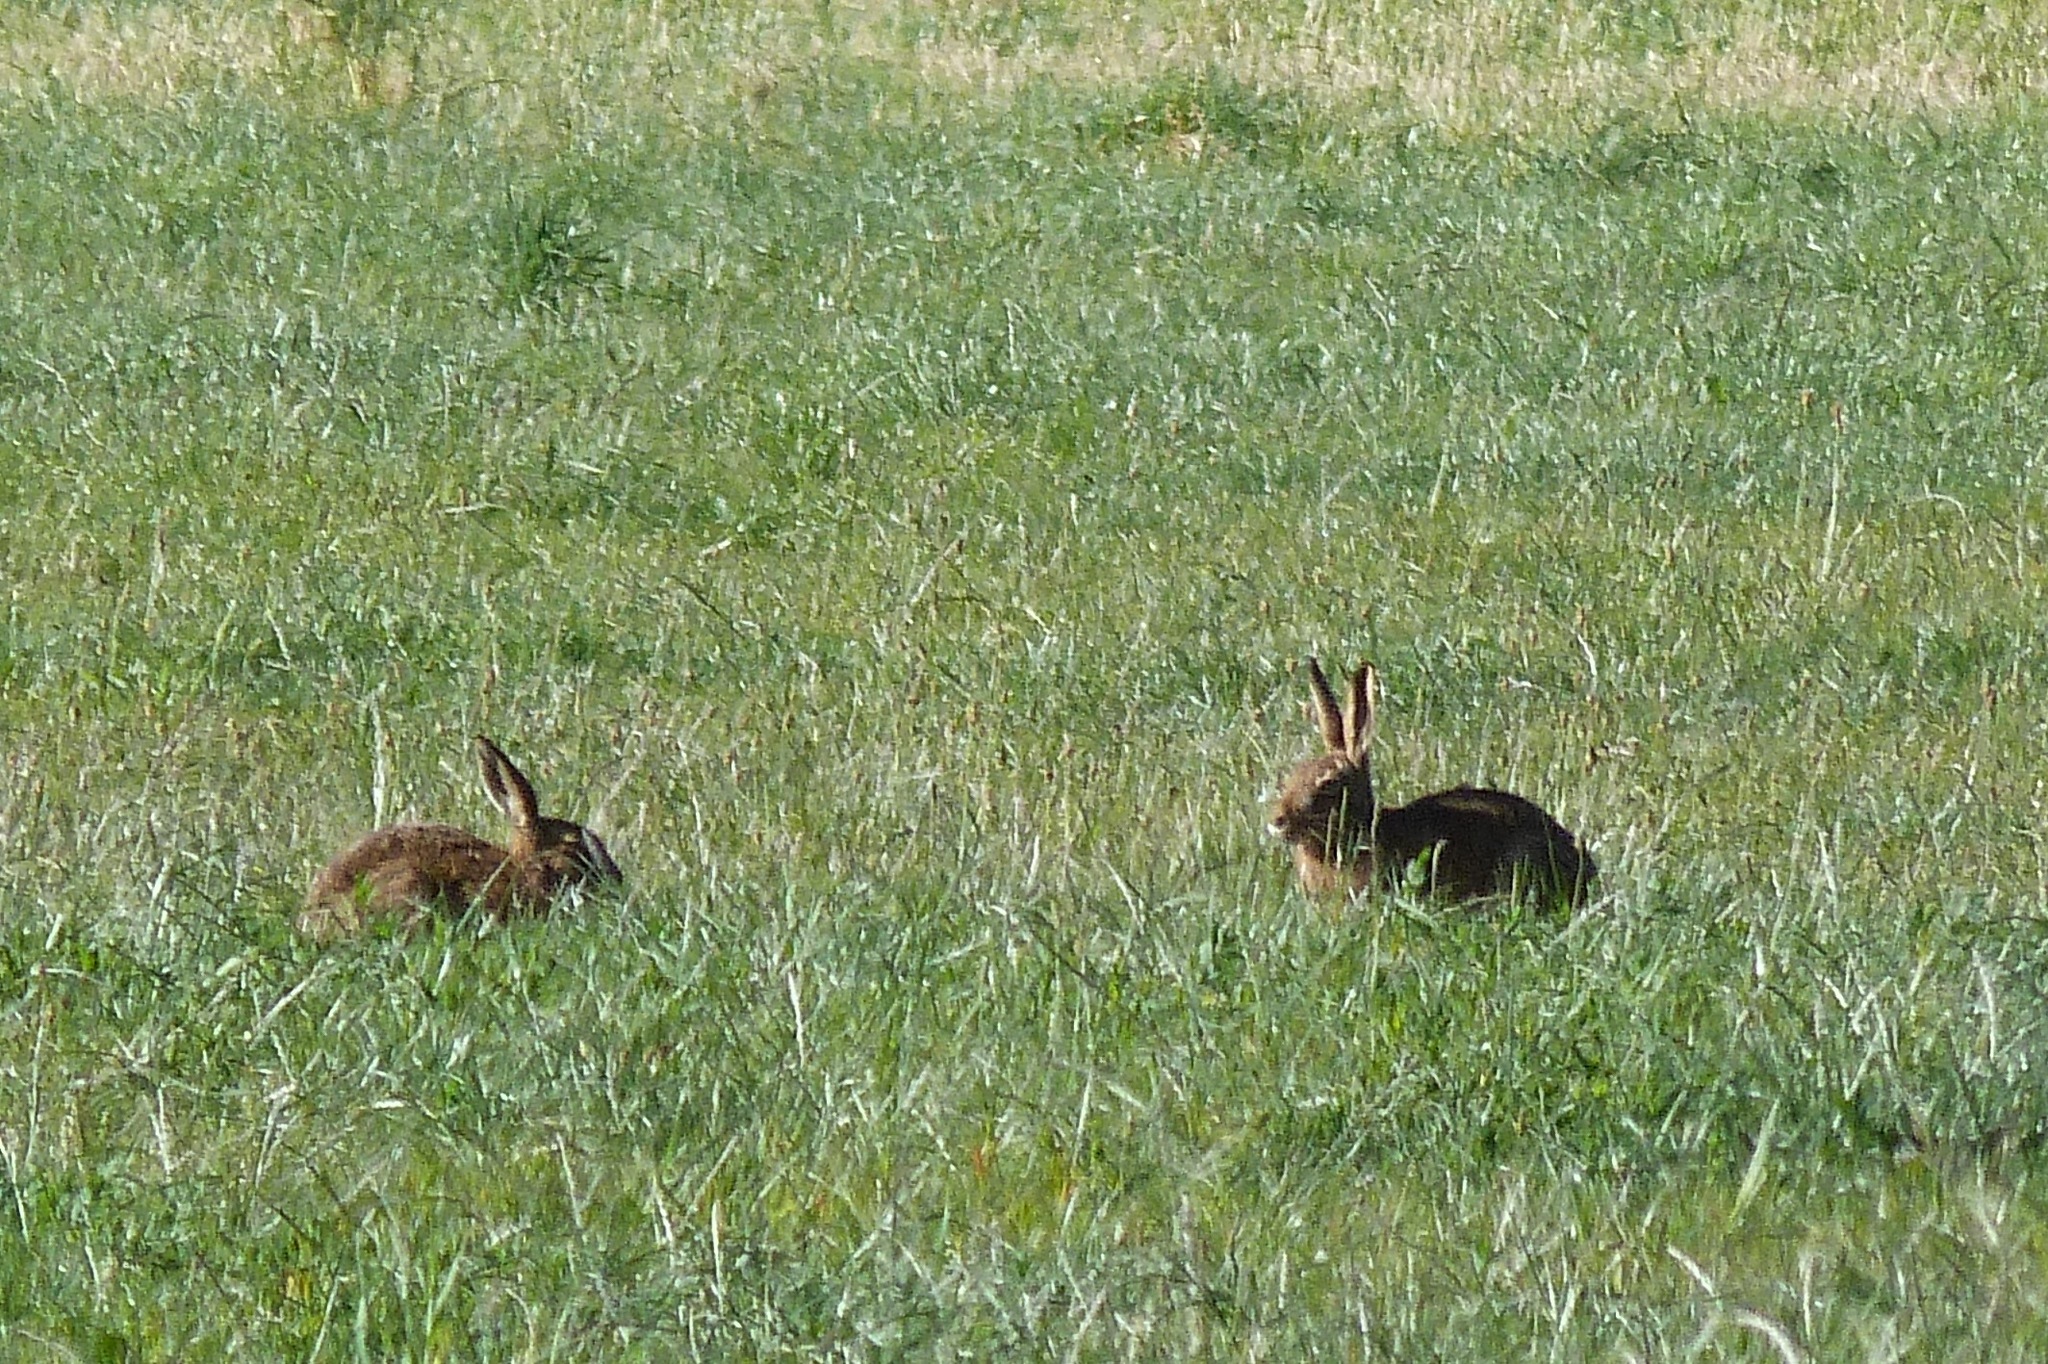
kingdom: Animalia
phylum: Chordata
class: Mammalia
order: Lagomorpha
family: Leporidae
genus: Lepus
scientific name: Lepus europaeus
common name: European hare
